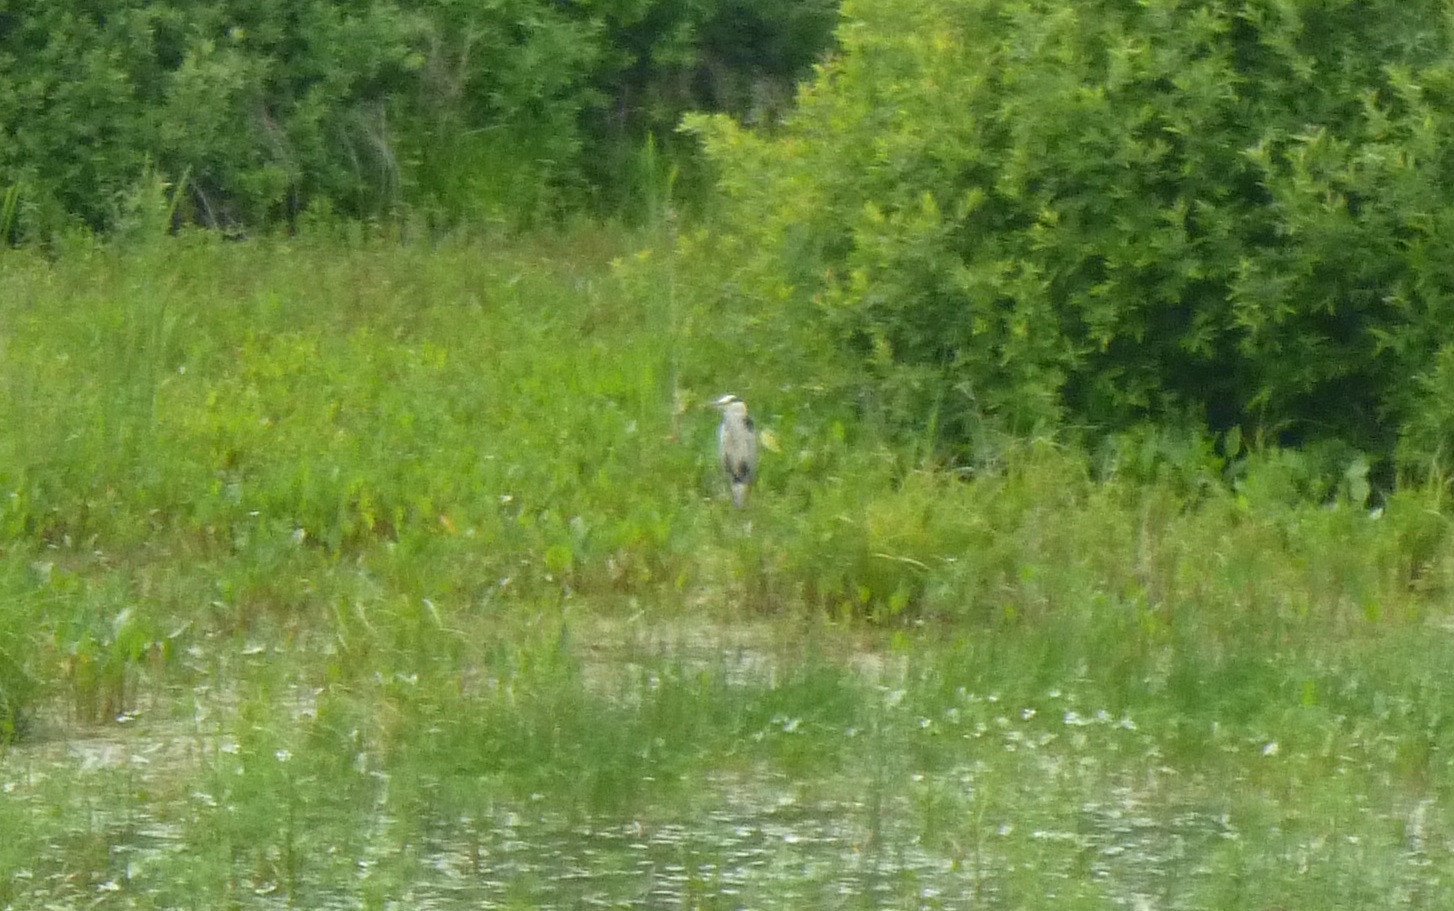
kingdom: Animalia
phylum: Chordata
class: Aves
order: Pelecaniformes
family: Ardeidae
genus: Ardea
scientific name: Ardea cinerea
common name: Grey heron
